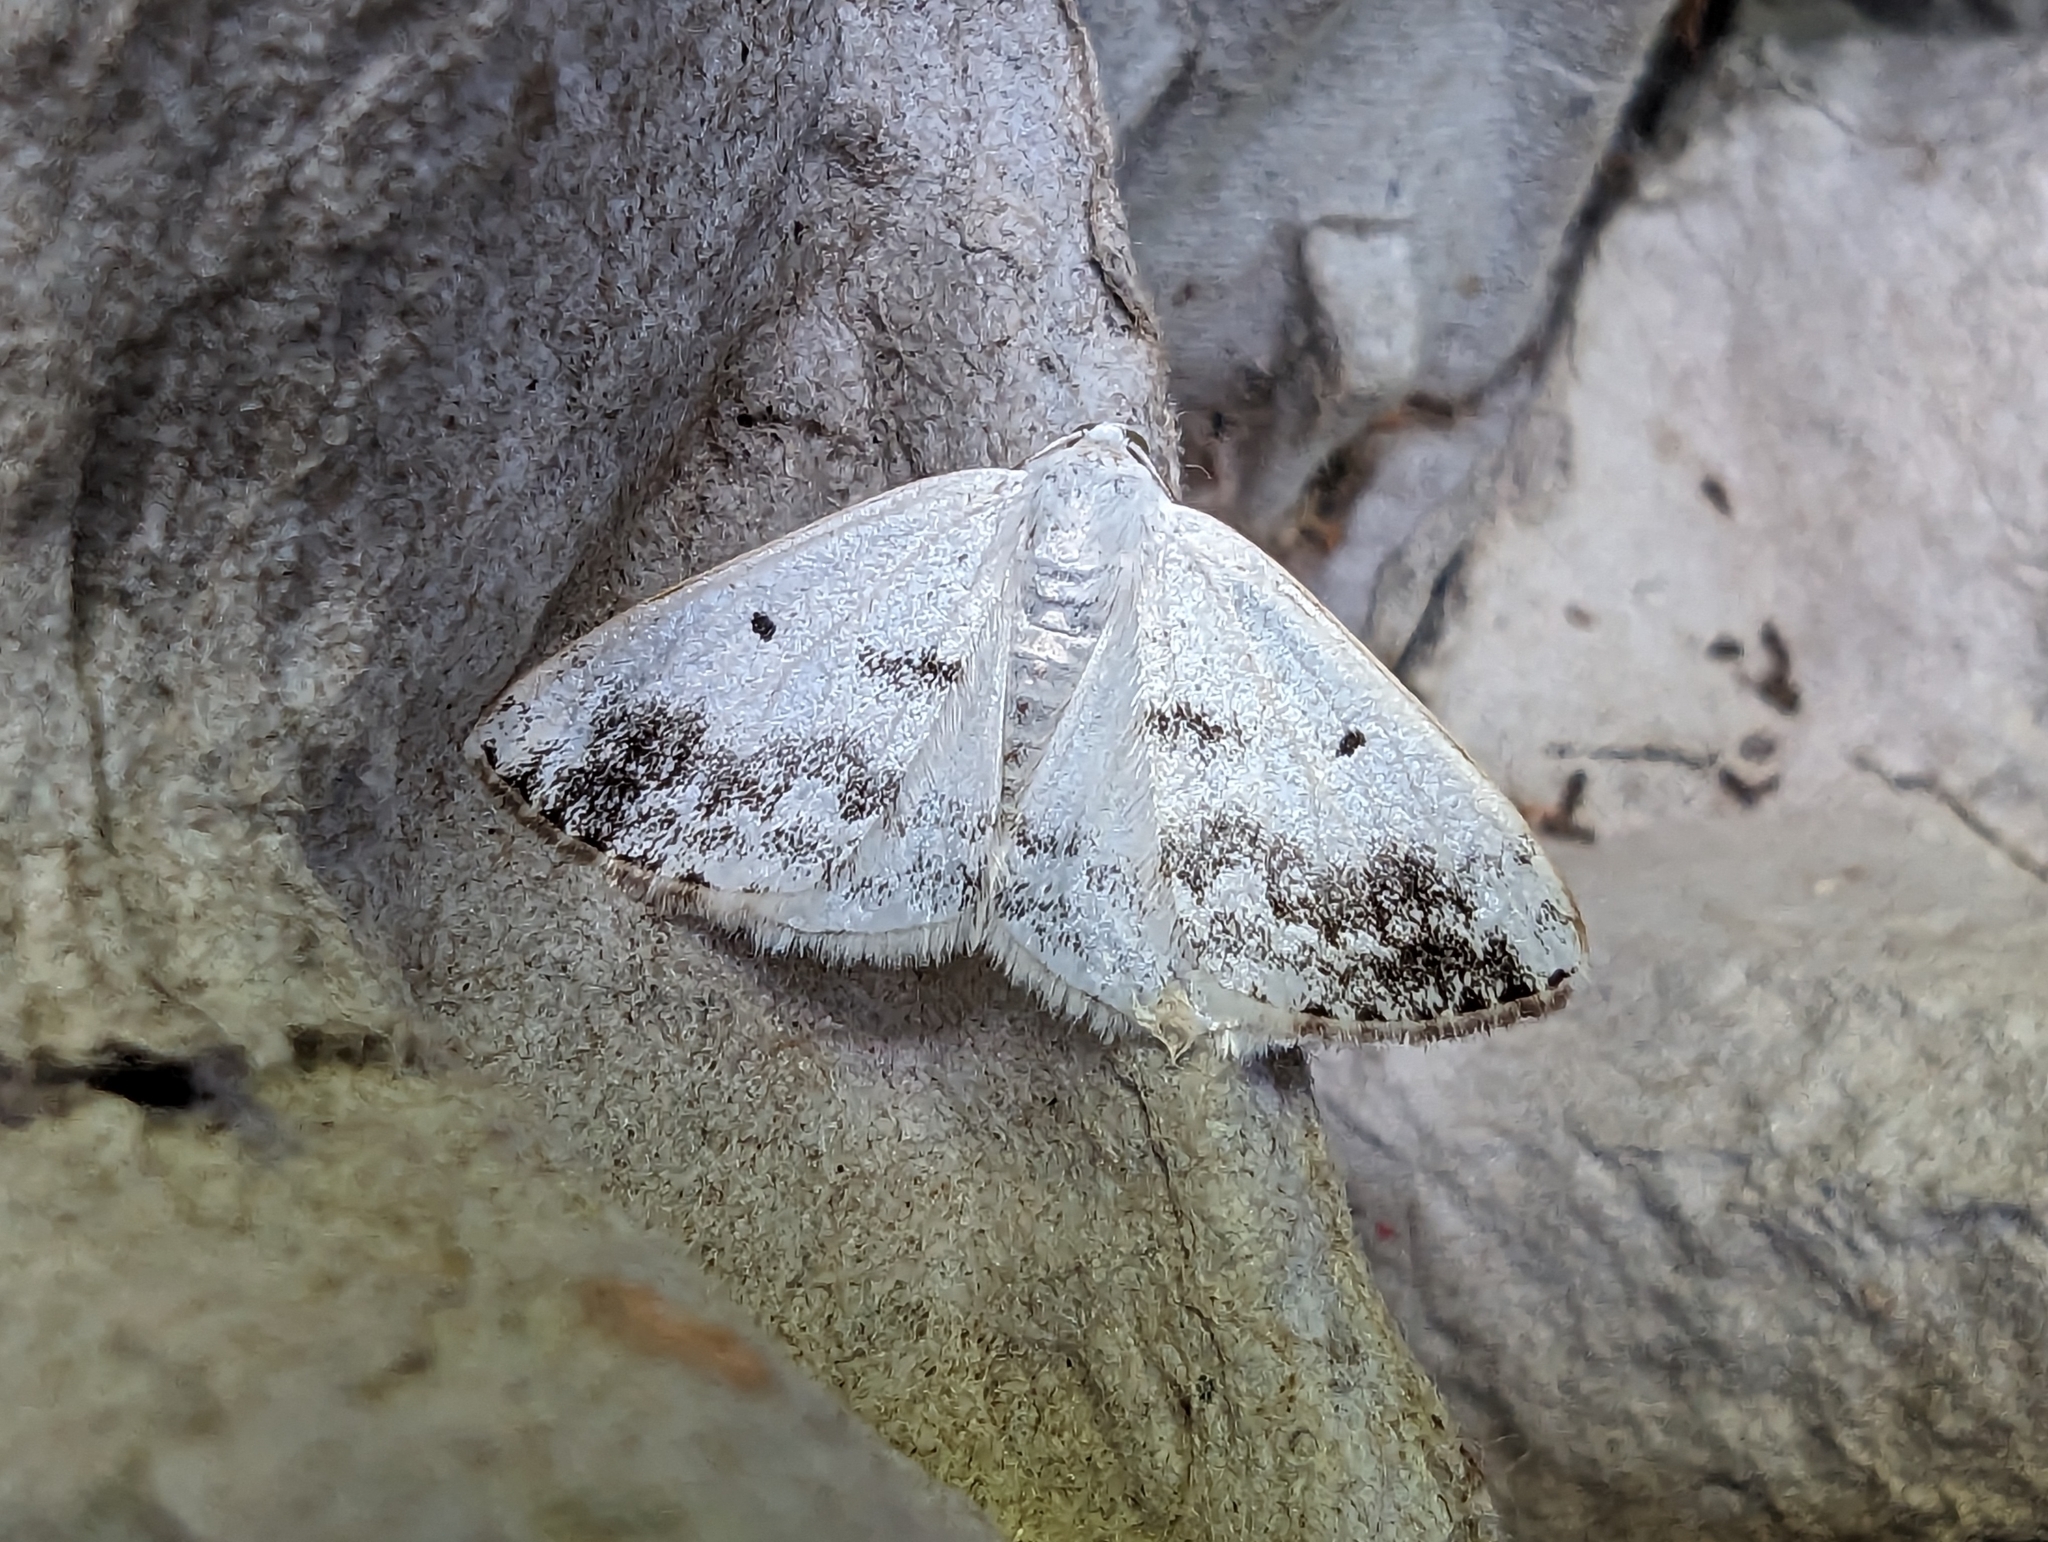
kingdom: Animalia
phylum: Arthropoda
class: Insecta
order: Lepidoptera
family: Geometridae
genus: Lomographa
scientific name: Lomographa temerata
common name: Clouded silver
